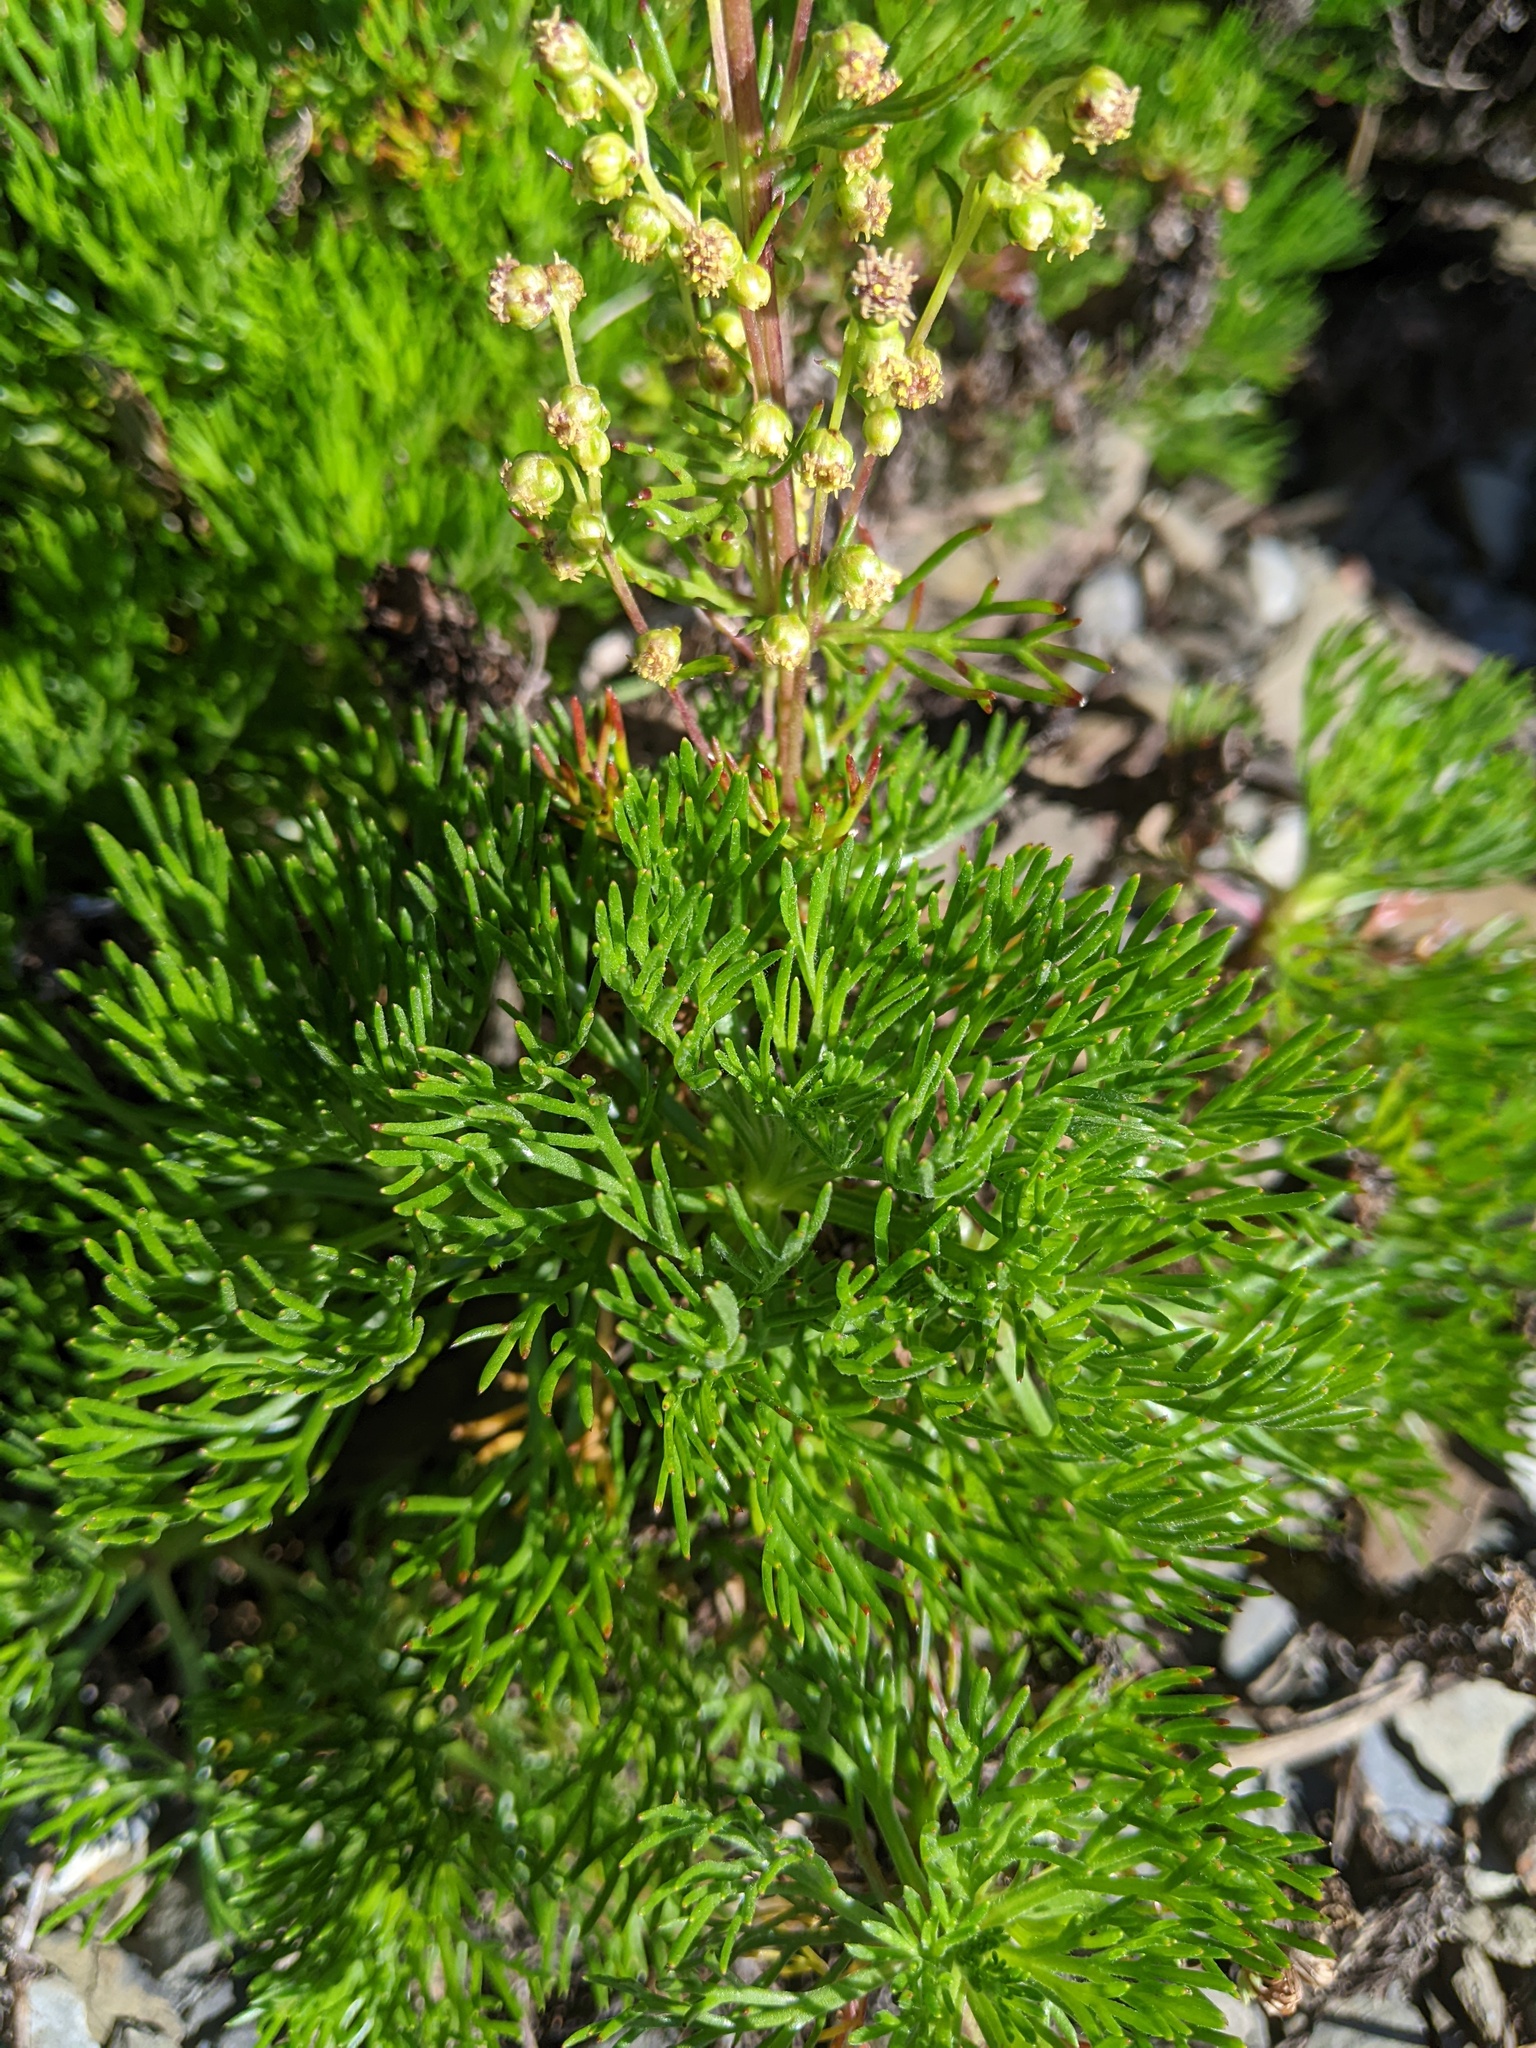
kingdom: Plantae
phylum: Tracheophyta
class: Magnoliopsida
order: Asterales
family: Asteraceae
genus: Artemisia
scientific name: Artemisia morrisonensis
